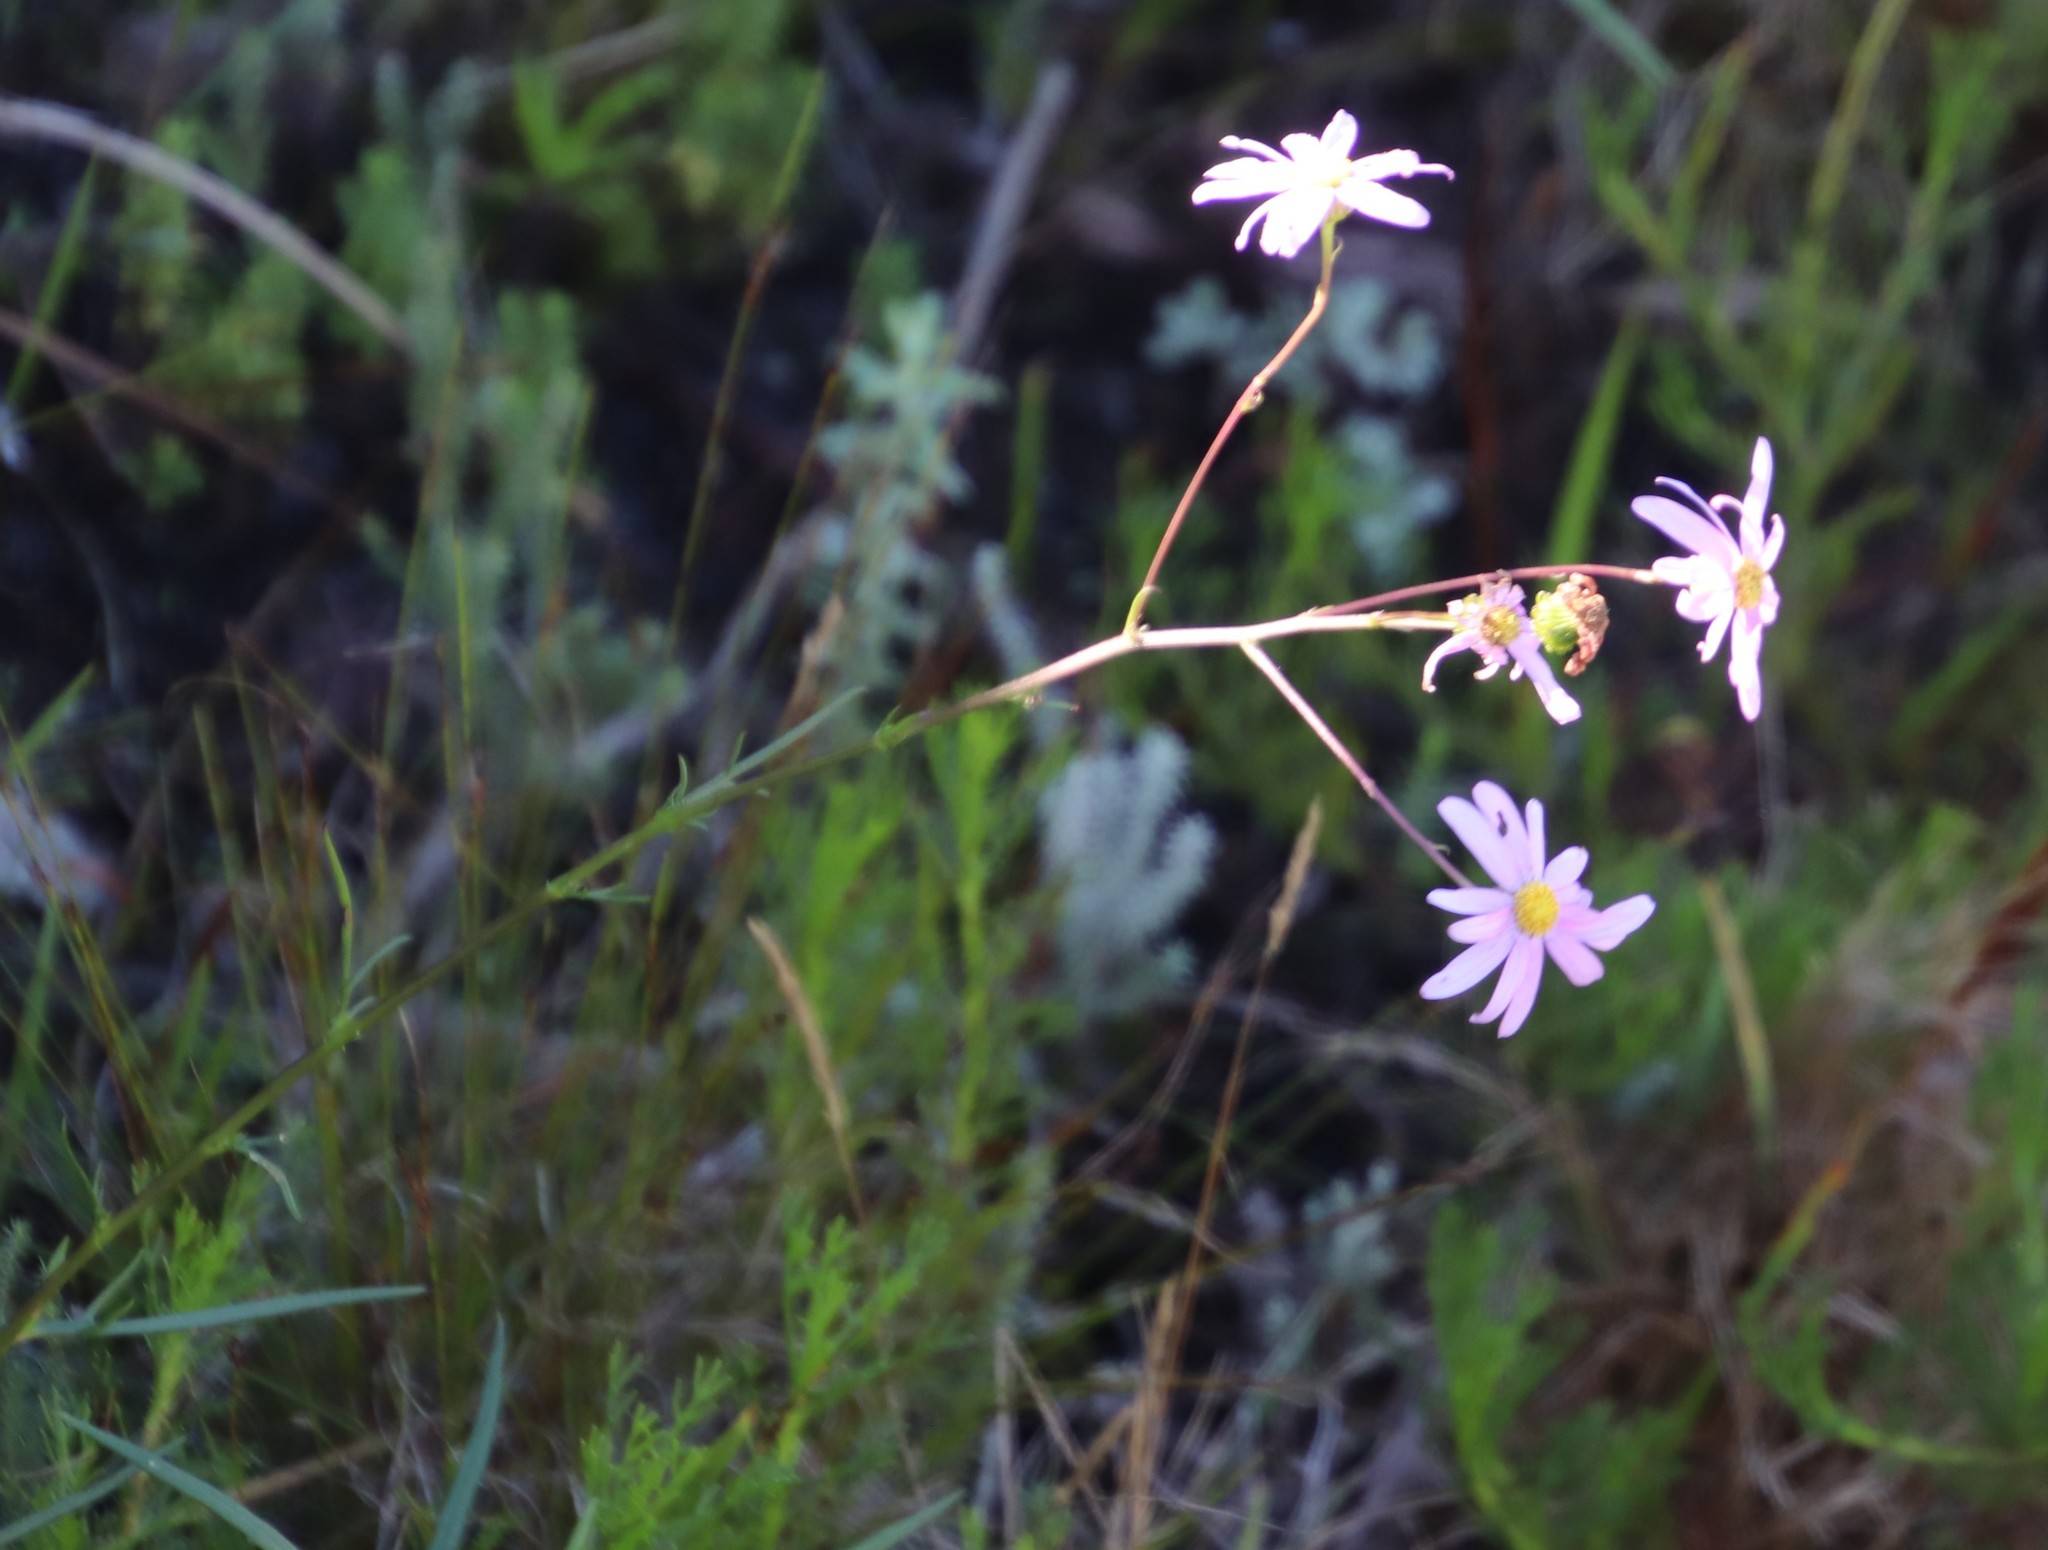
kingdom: Plantae
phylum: Tracheophyta
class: Magnoliopsida
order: Asterales
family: Asteraceae
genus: Senecio
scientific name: Senecio umbellatus
